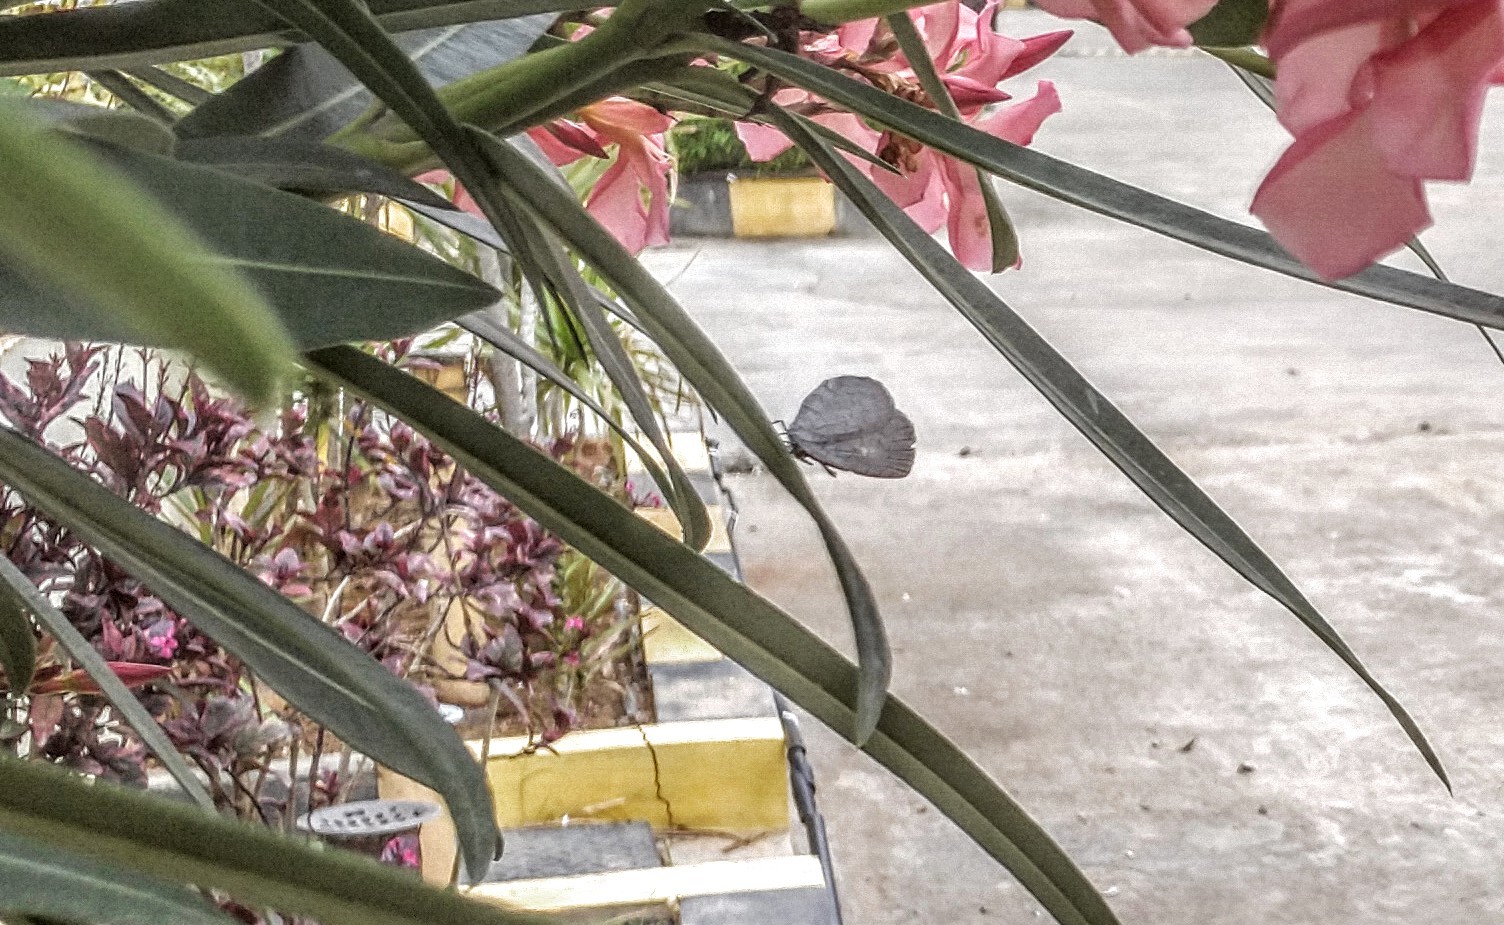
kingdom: Animalia
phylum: Arthropoda
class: Insecta
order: Lepidoptera
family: Lycaenidae
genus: Spalgis
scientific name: Spalgis epius
